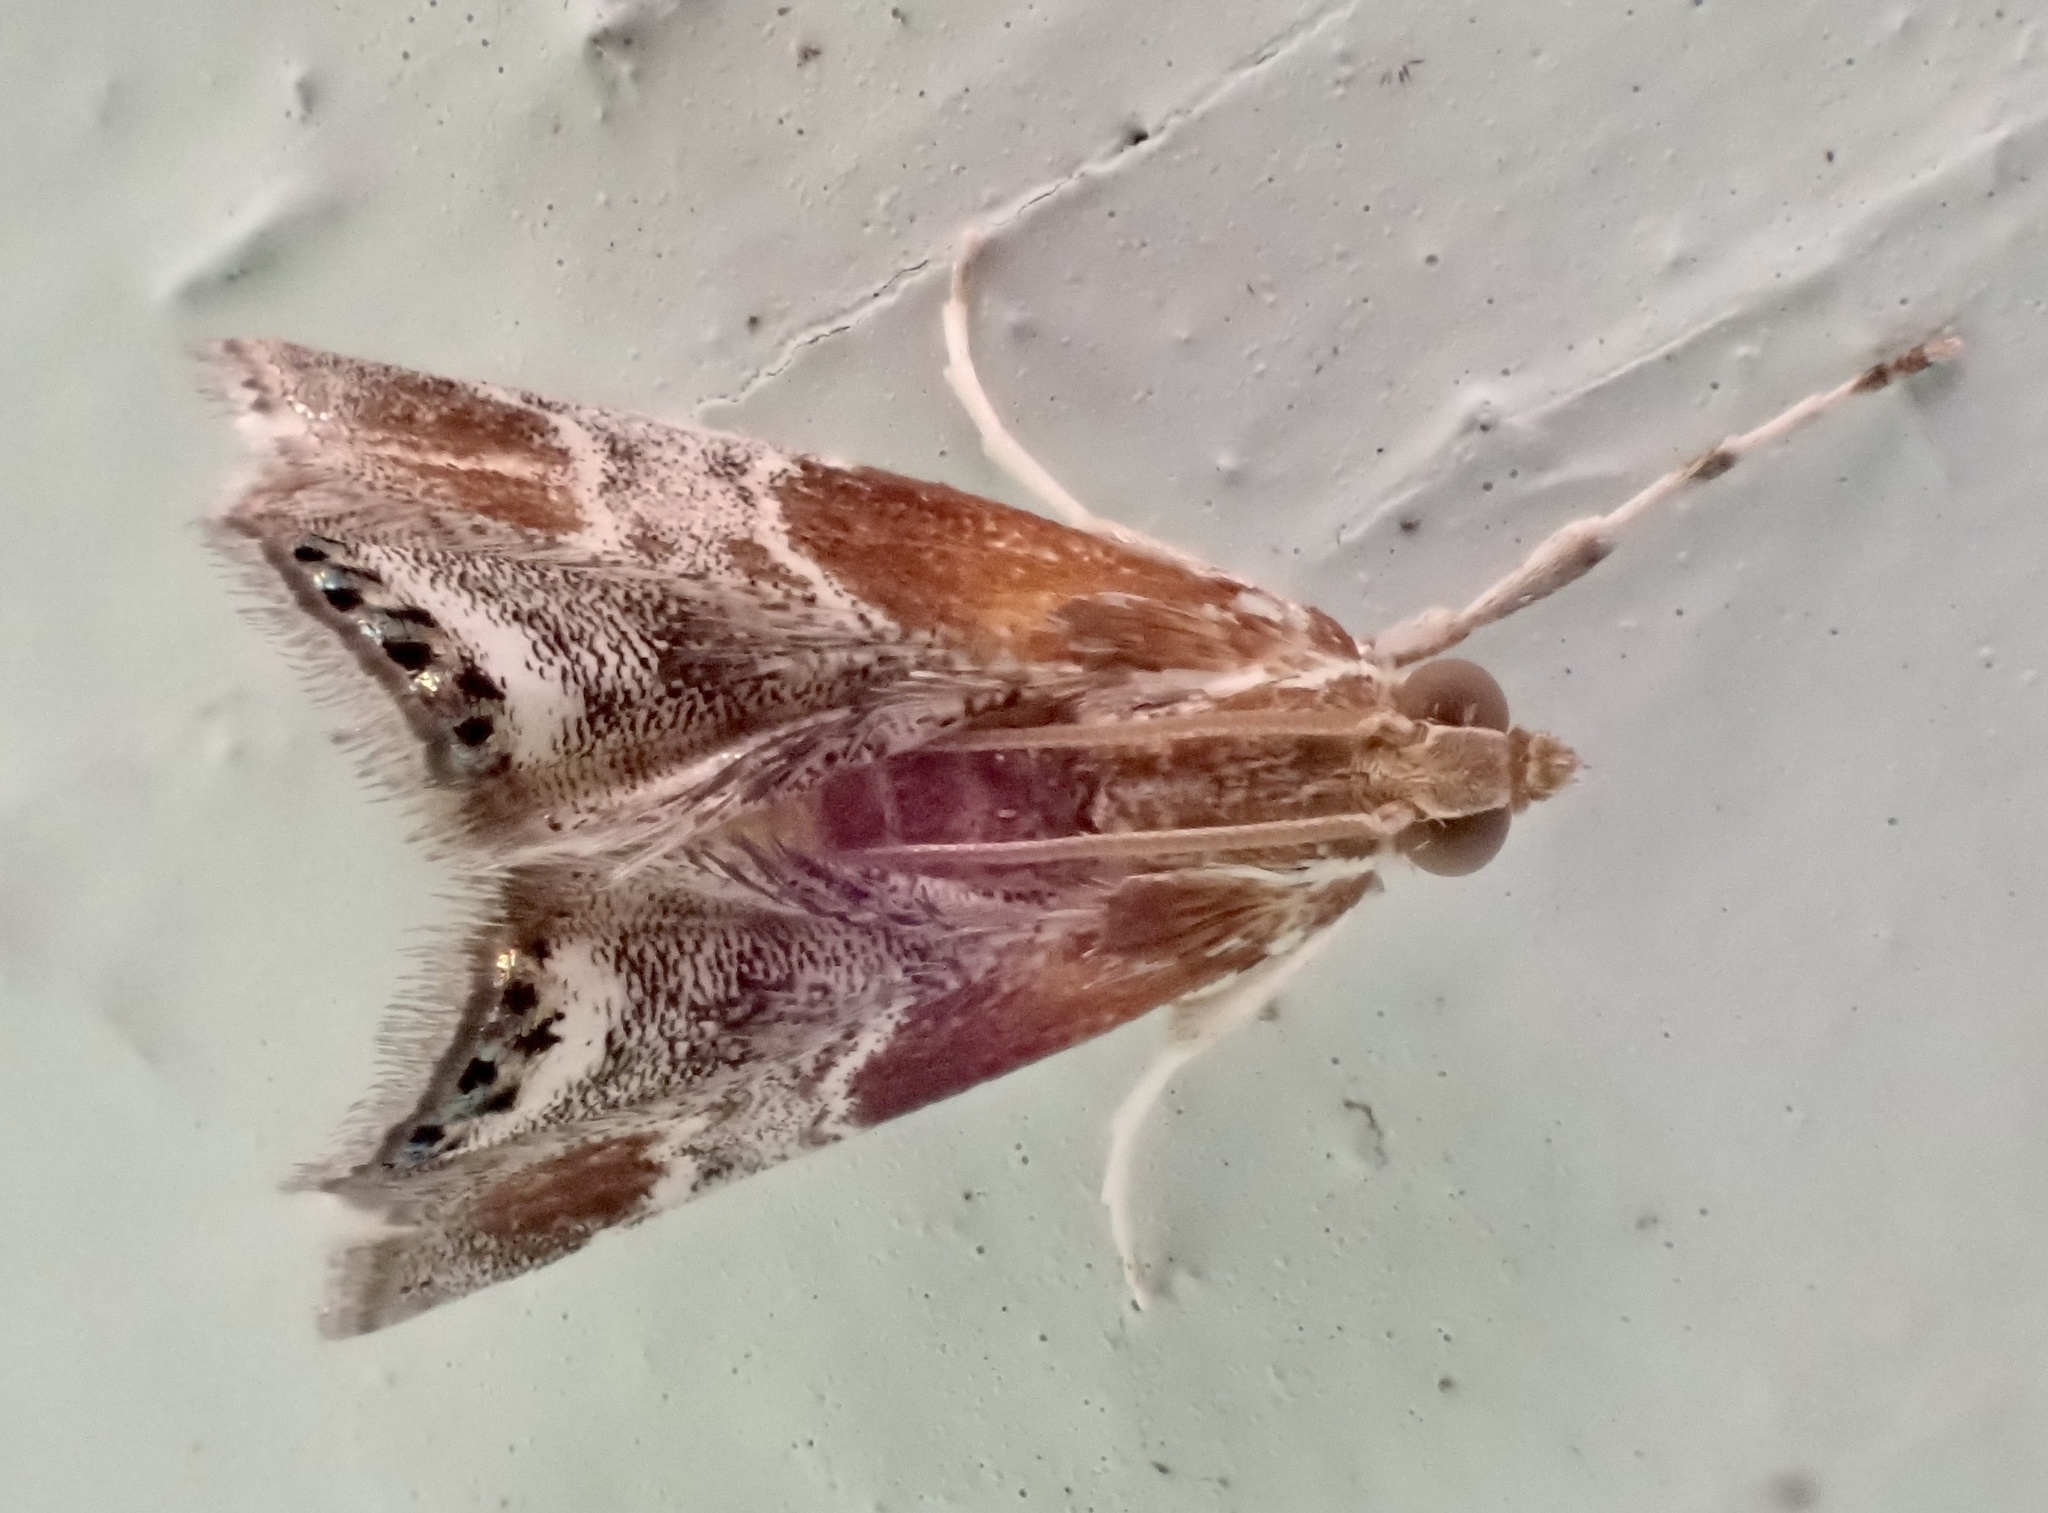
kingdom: Animalia
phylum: Arthropoda
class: Insecta
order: Lepidoptera
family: Crambidae
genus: Chalcoela
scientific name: Chalcoela pegasalis
